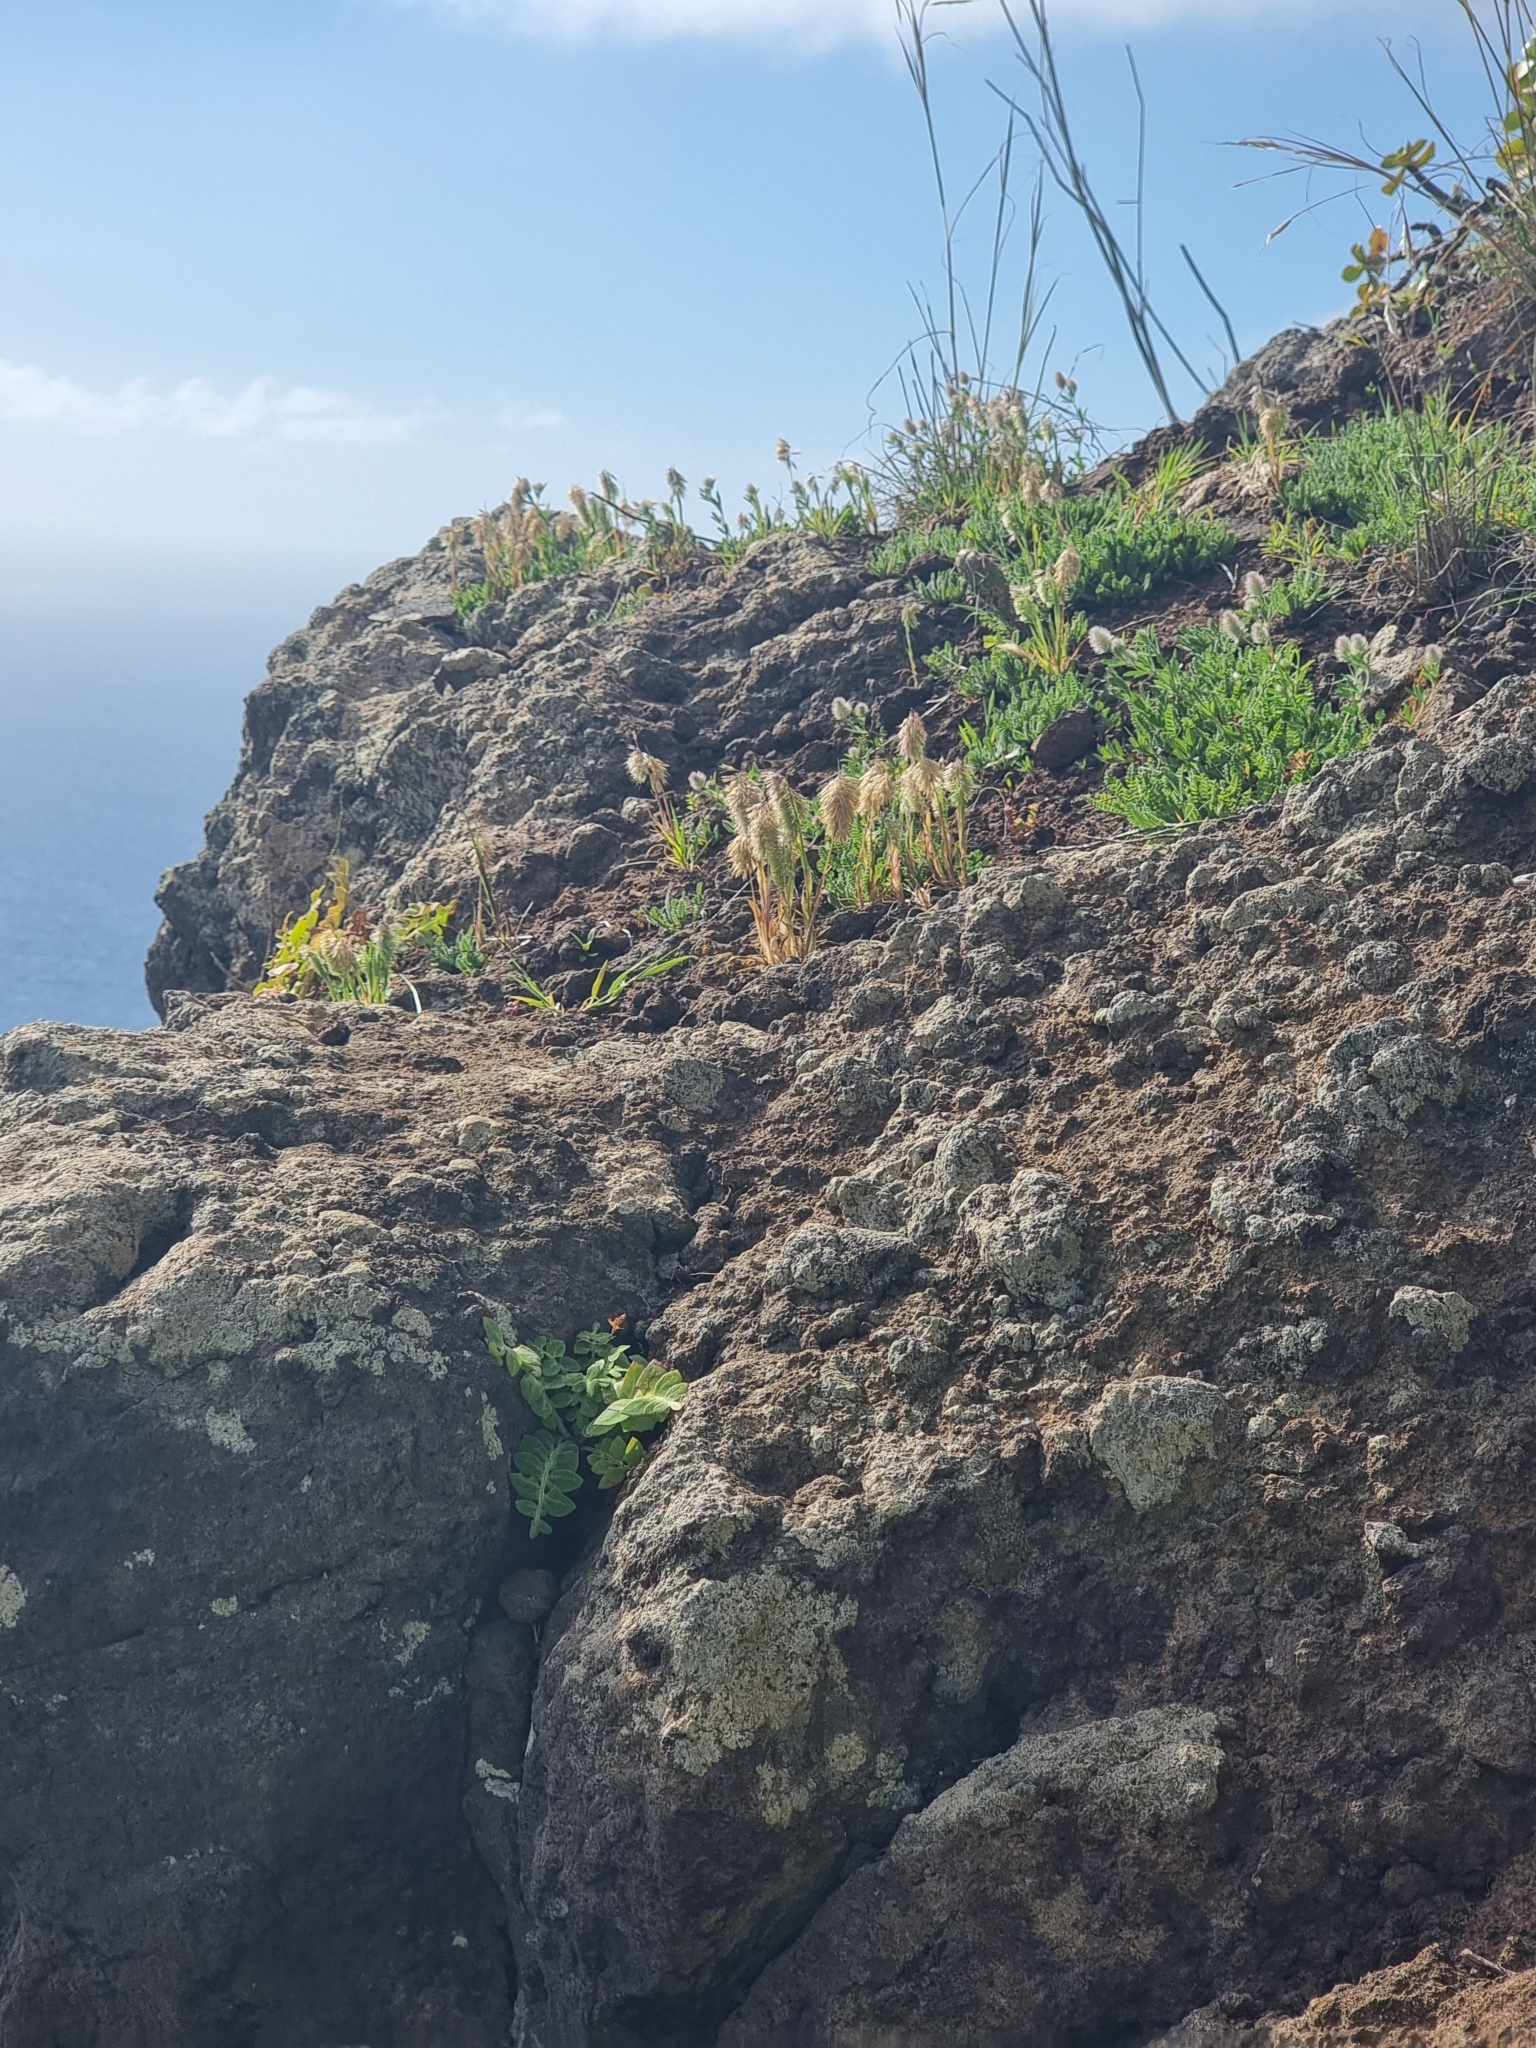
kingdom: Plantae
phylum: Tracheophyta
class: Liliopsida
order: Poales
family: Poaceae
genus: Lamarckia
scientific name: Lamarckia aurea
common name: Golden dog's-tail
